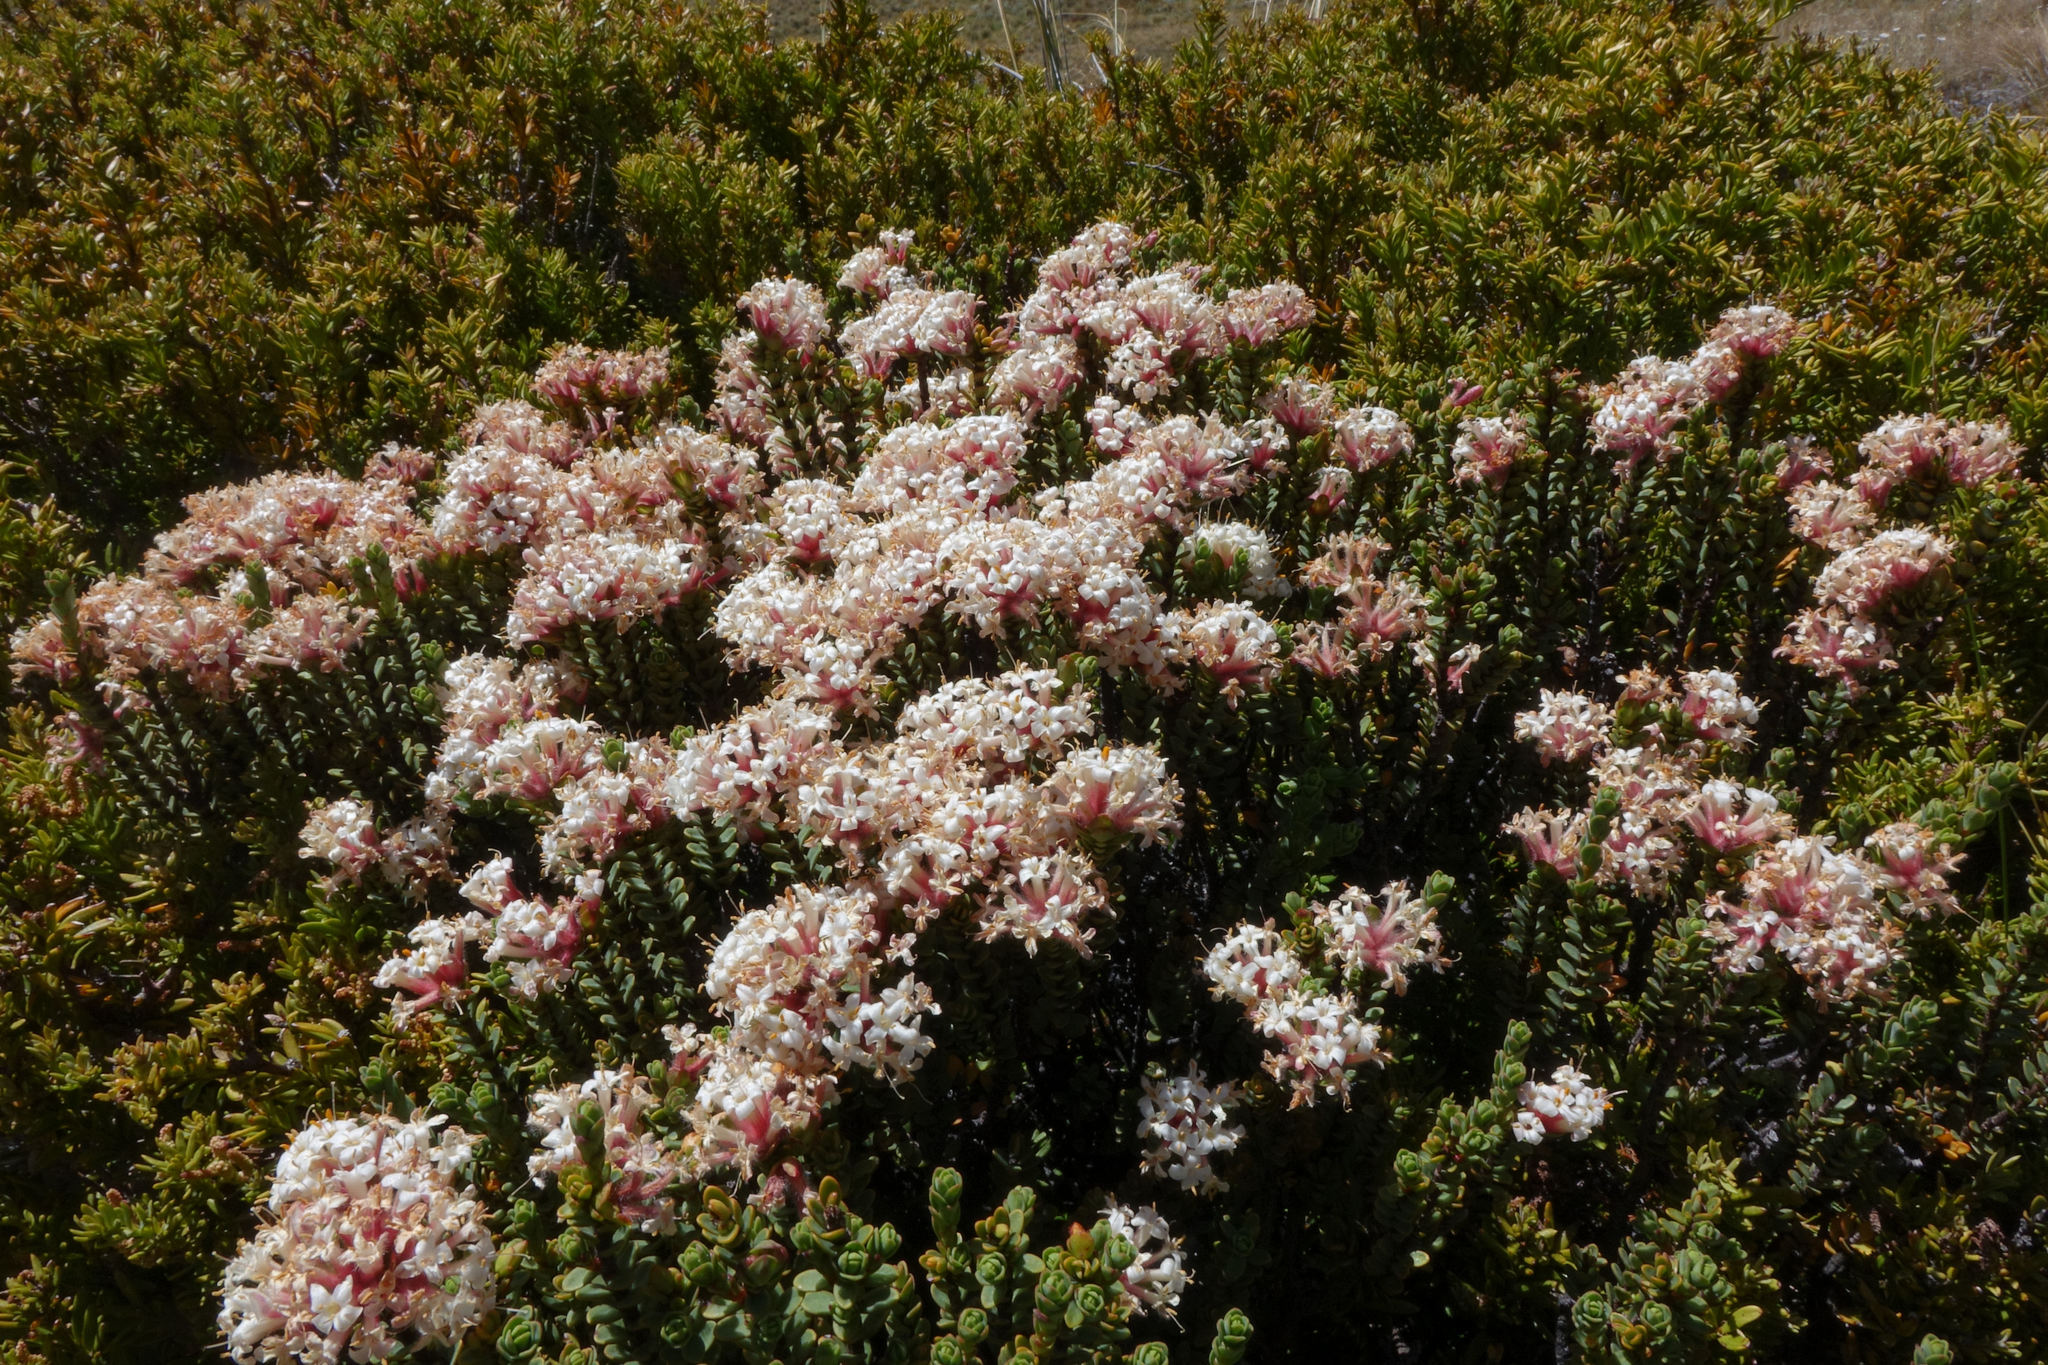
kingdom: Plantae
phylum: Tracheophyta
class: Magnoliopsida
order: Malvales
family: Thymelaeaceae
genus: Pimelea
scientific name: Pimelea traversii
